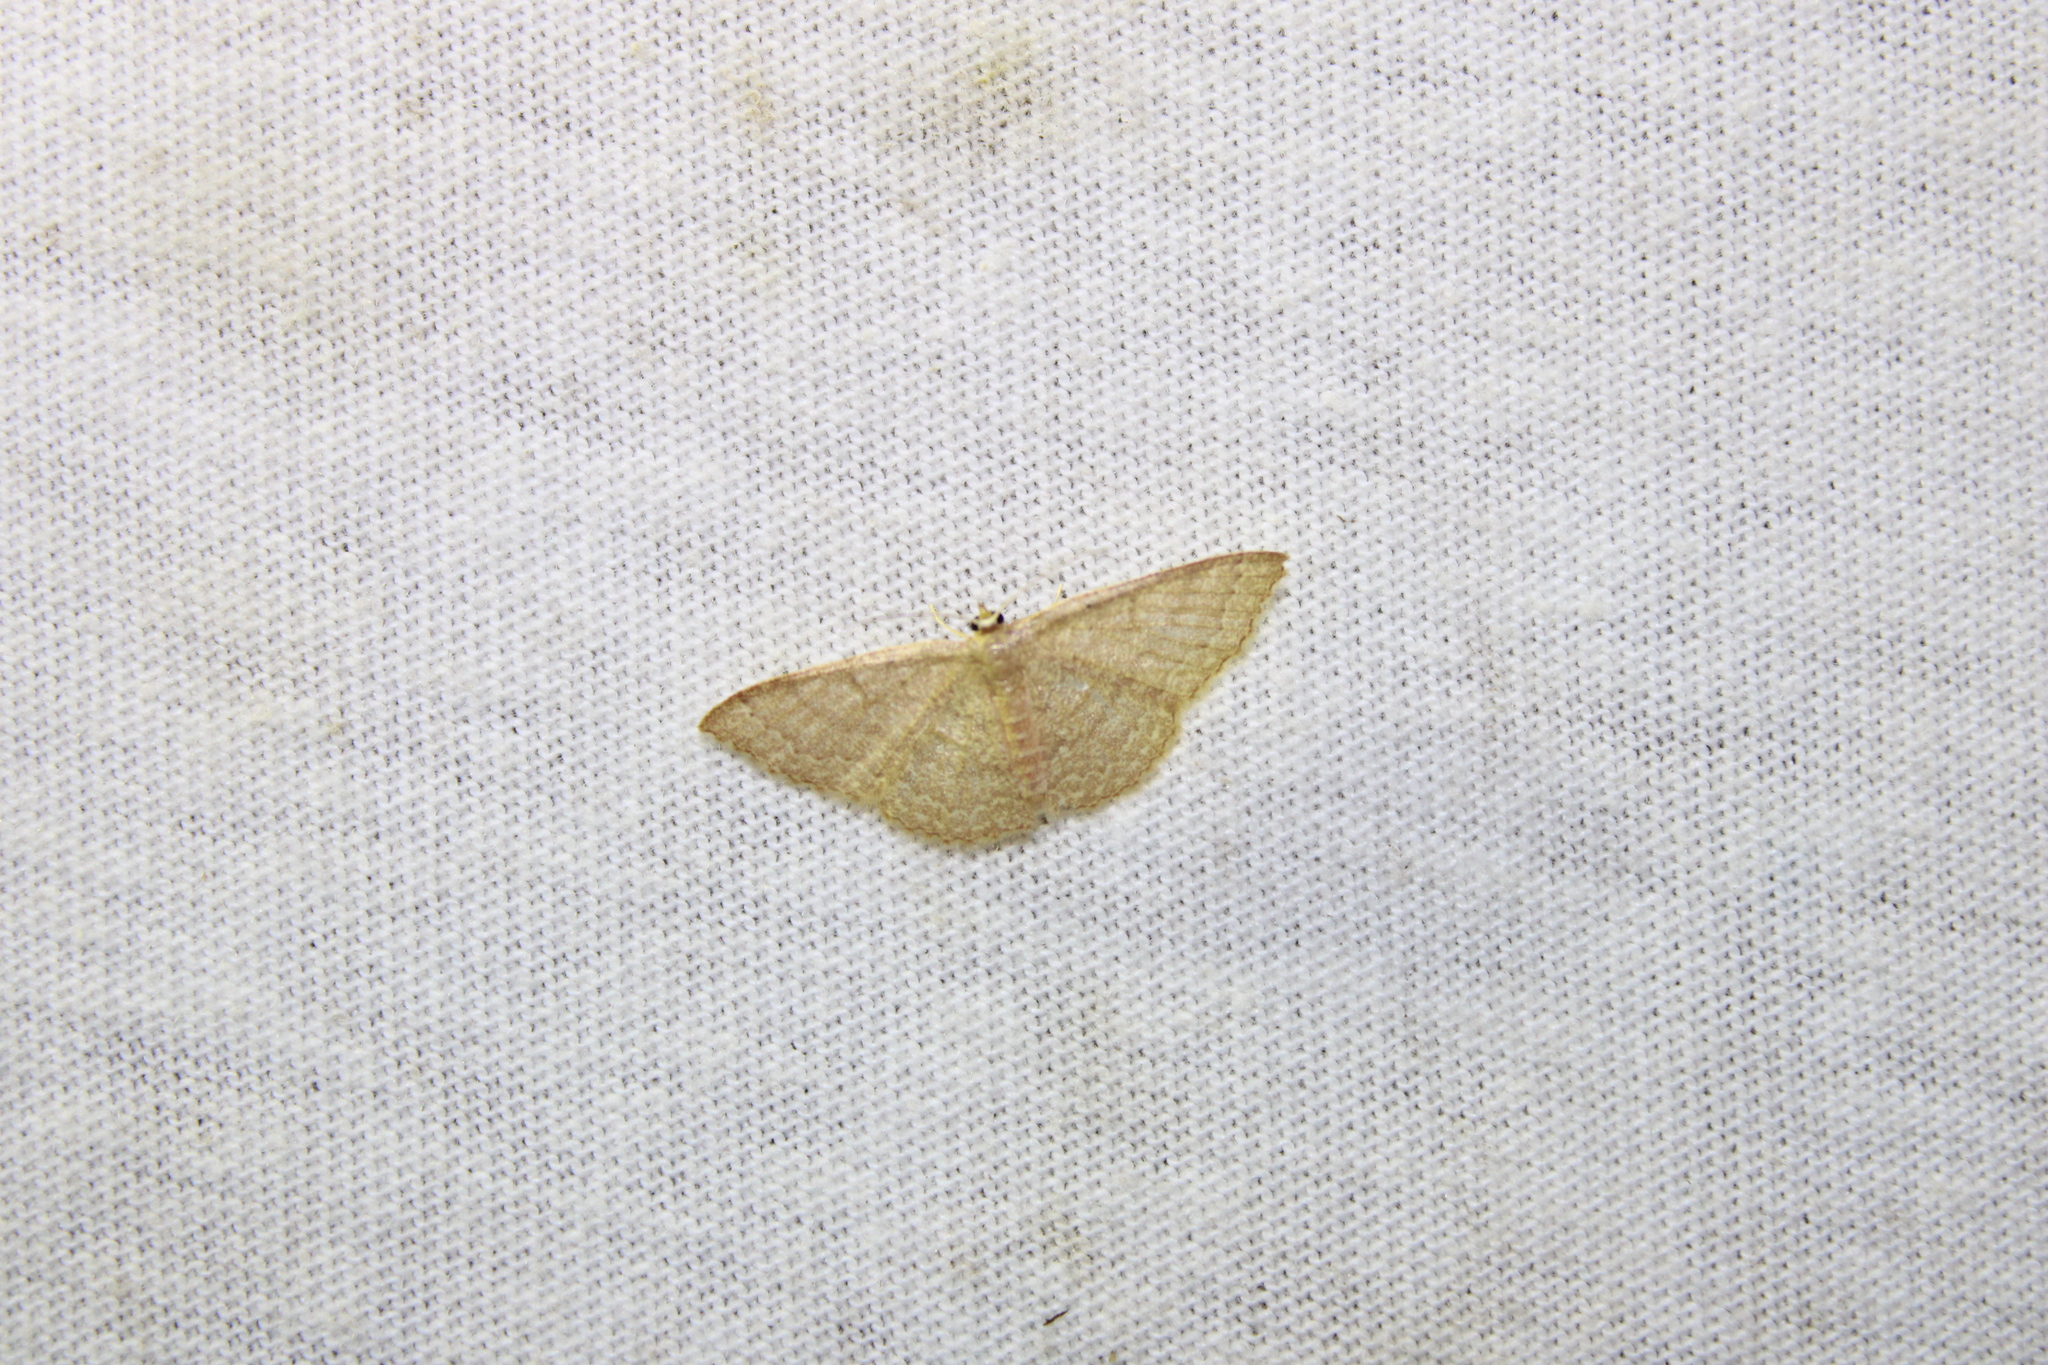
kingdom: Animalia
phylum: Arthropoda
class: Insecta
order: Lepidoptera
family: Geometridae
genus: Pleuroprucha
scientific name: Pleuroprucha insulsaria
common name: Common tan wave
